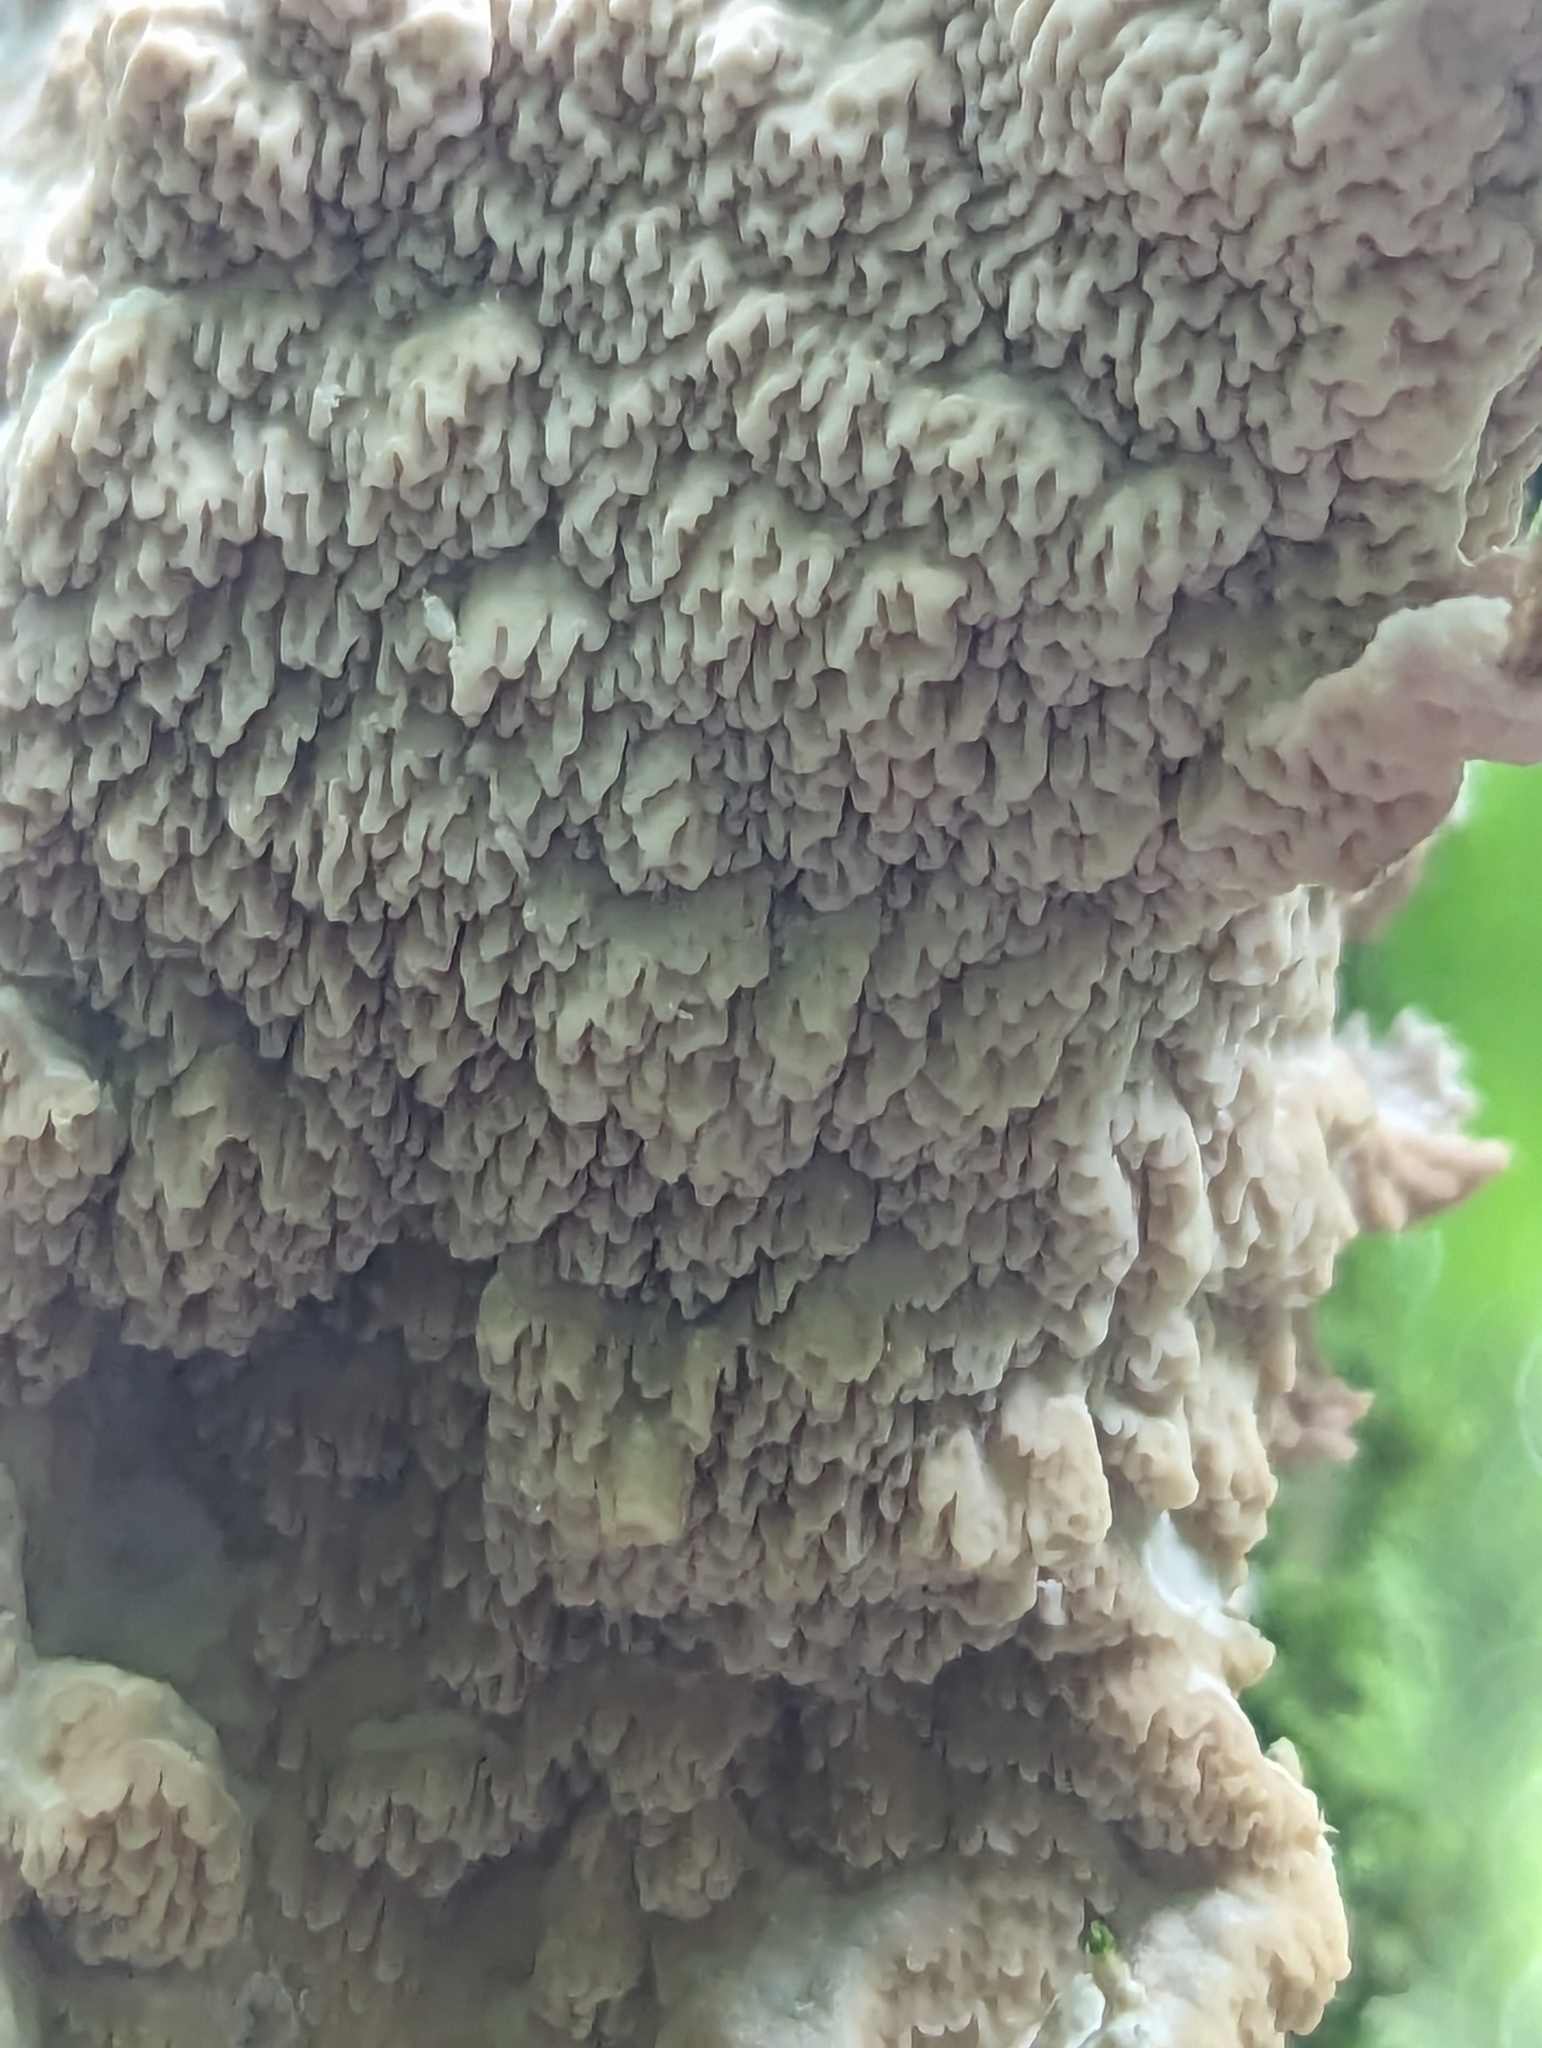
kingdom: Fungi
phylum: Basidiomycota
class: Agaricomycetes
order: Polyporales
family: Meruliaceae
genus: Phlebia
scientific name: Phlebia acerina
